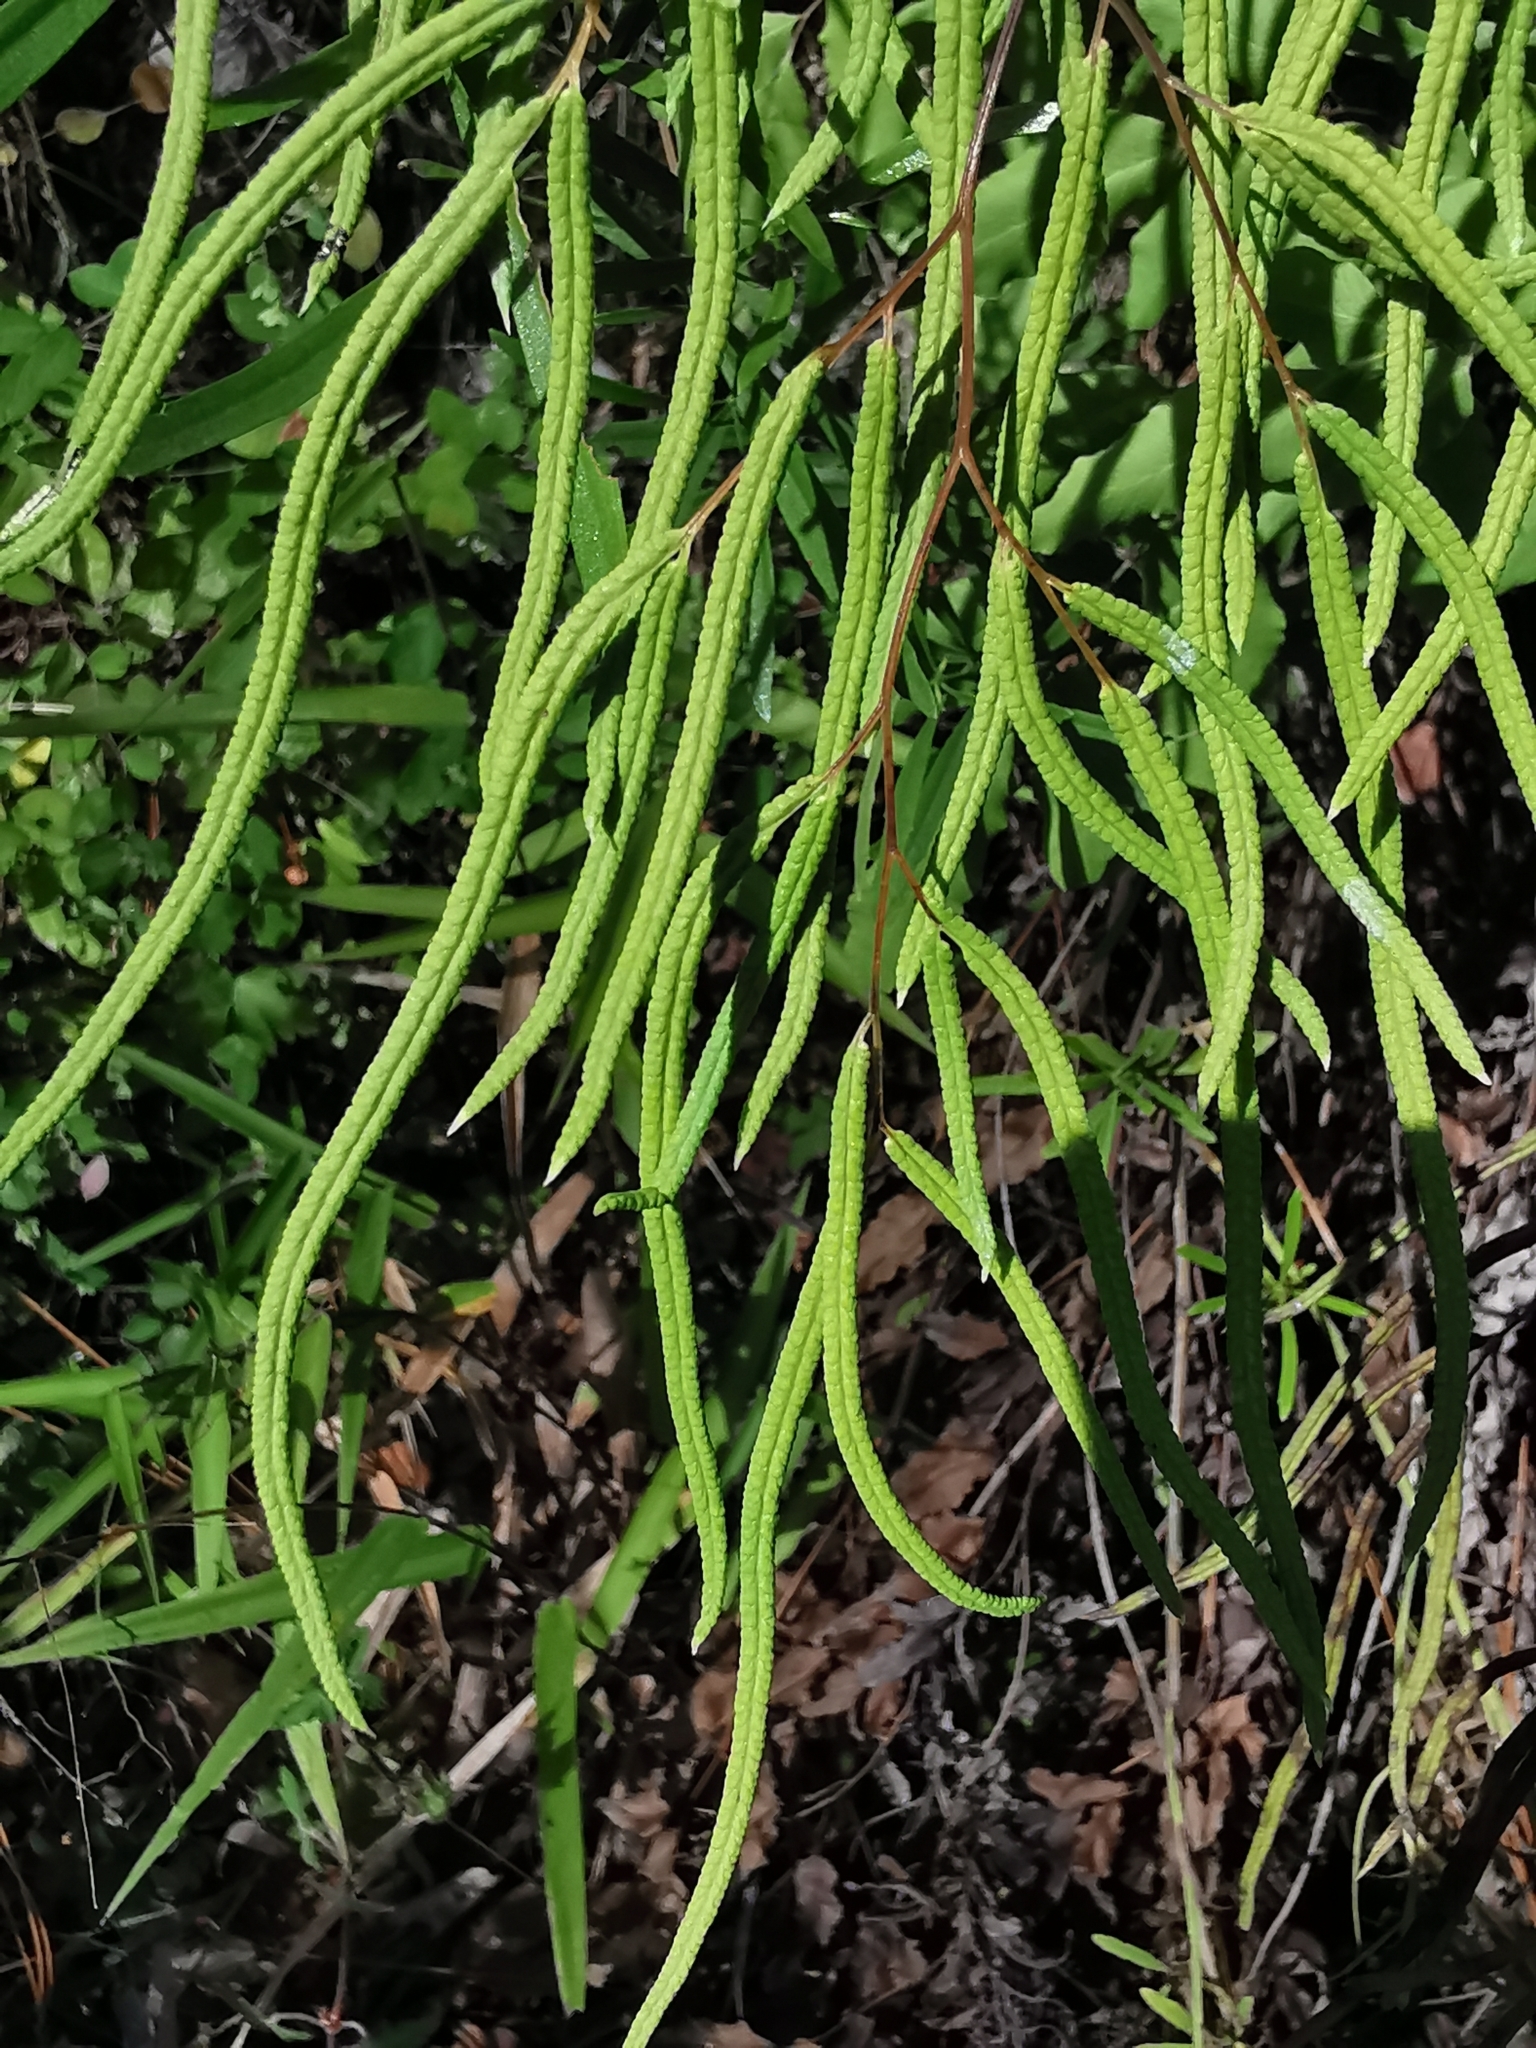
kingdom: Plantae
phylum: Tracheophyta
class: Polypodiopsida
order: Polypodiales
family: Pteridaceae
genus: Llavea
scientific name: Llavea cordifolia
